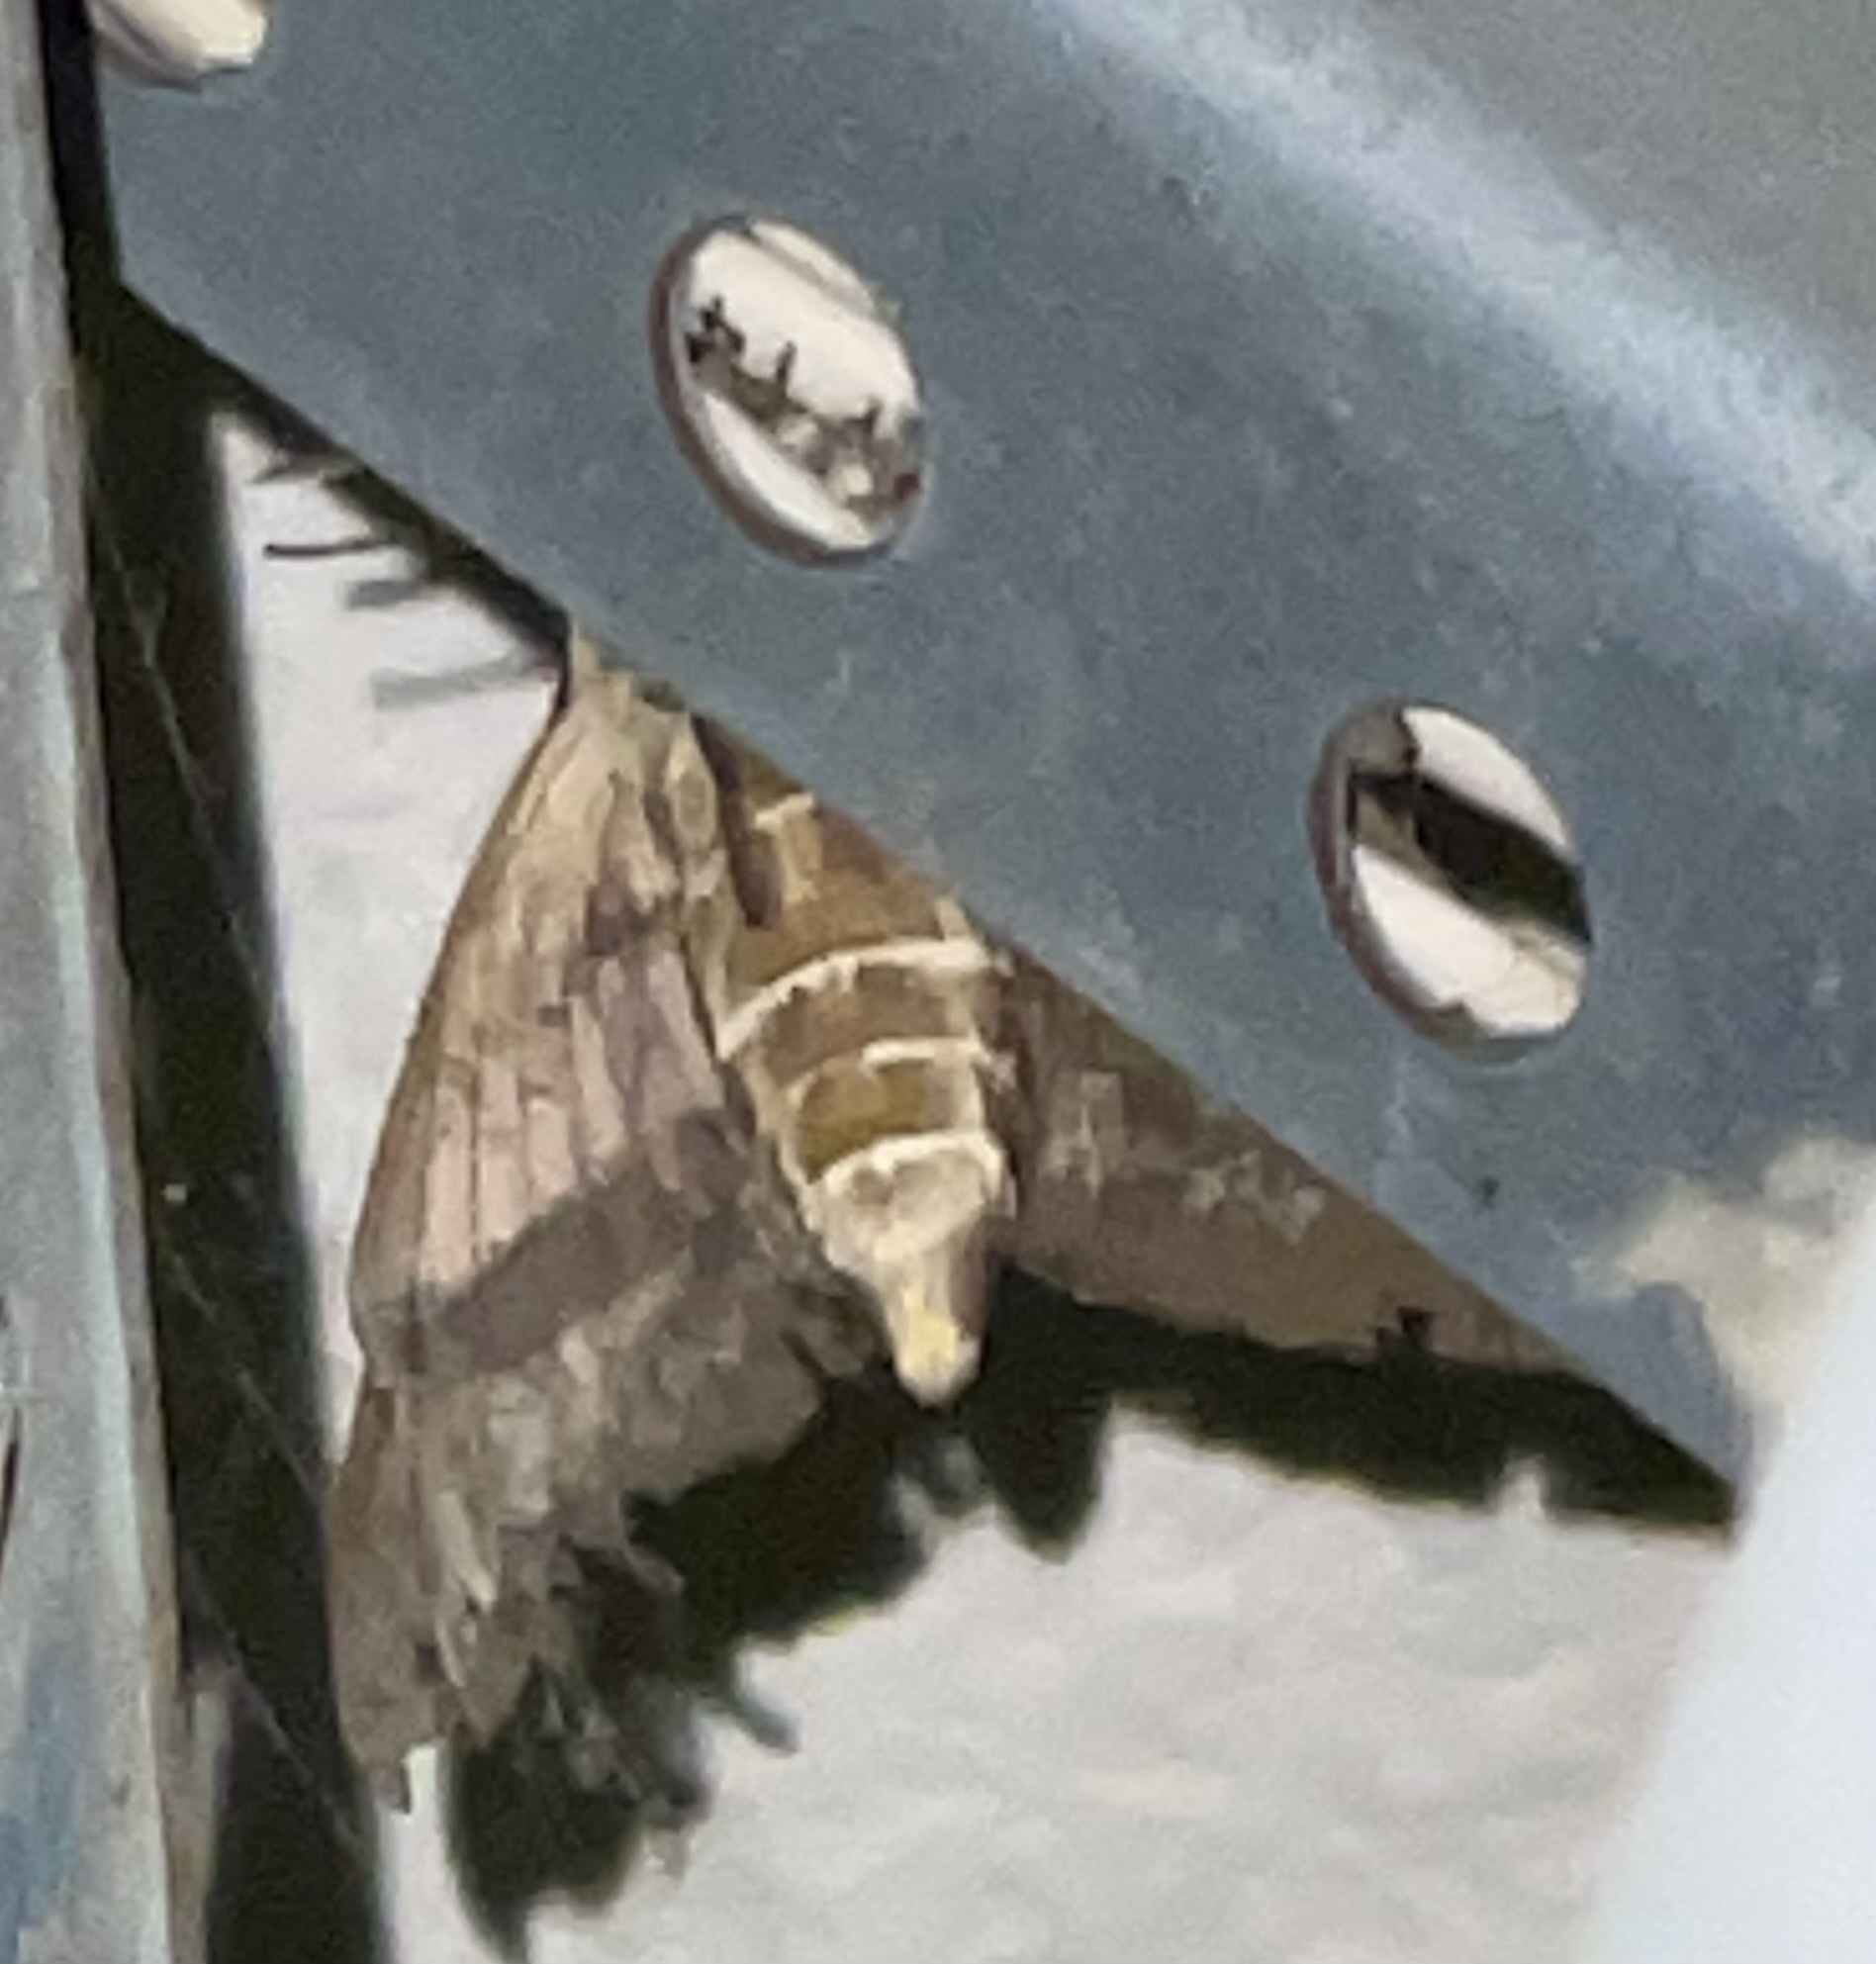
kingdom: Animalia
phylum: Arthropoda
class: Insecta
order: Lepidoptera
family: Sphingidae
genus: Hyles
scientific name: Hyles lineata
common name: White-lined sphinx
